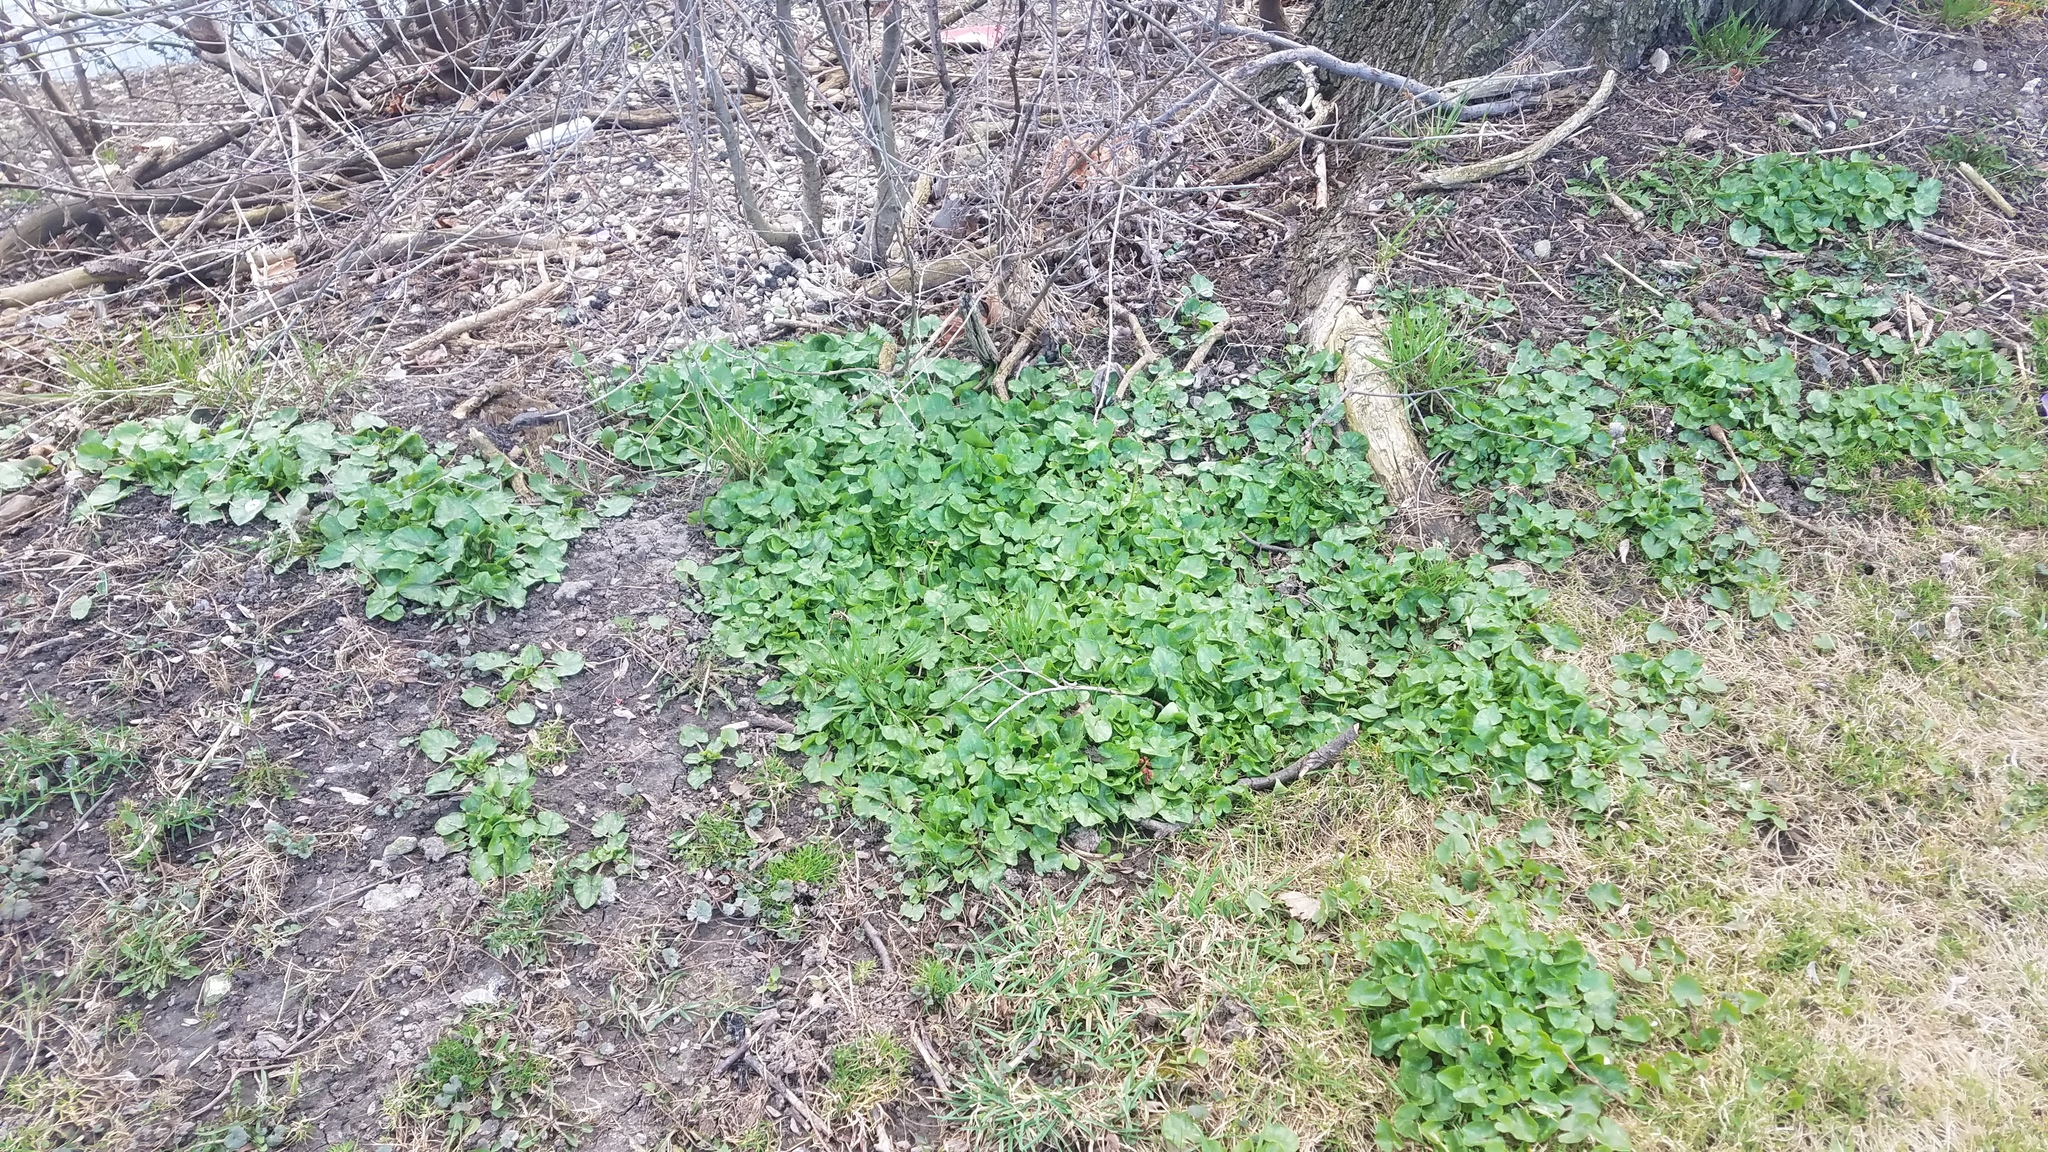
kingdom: Plantae
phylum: Tracheophyta
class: Magnoliopsida
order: Ranunculales
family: Ranunculaceae
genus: Ficaria
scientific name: Ficaria verna
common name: Lesser celandine
